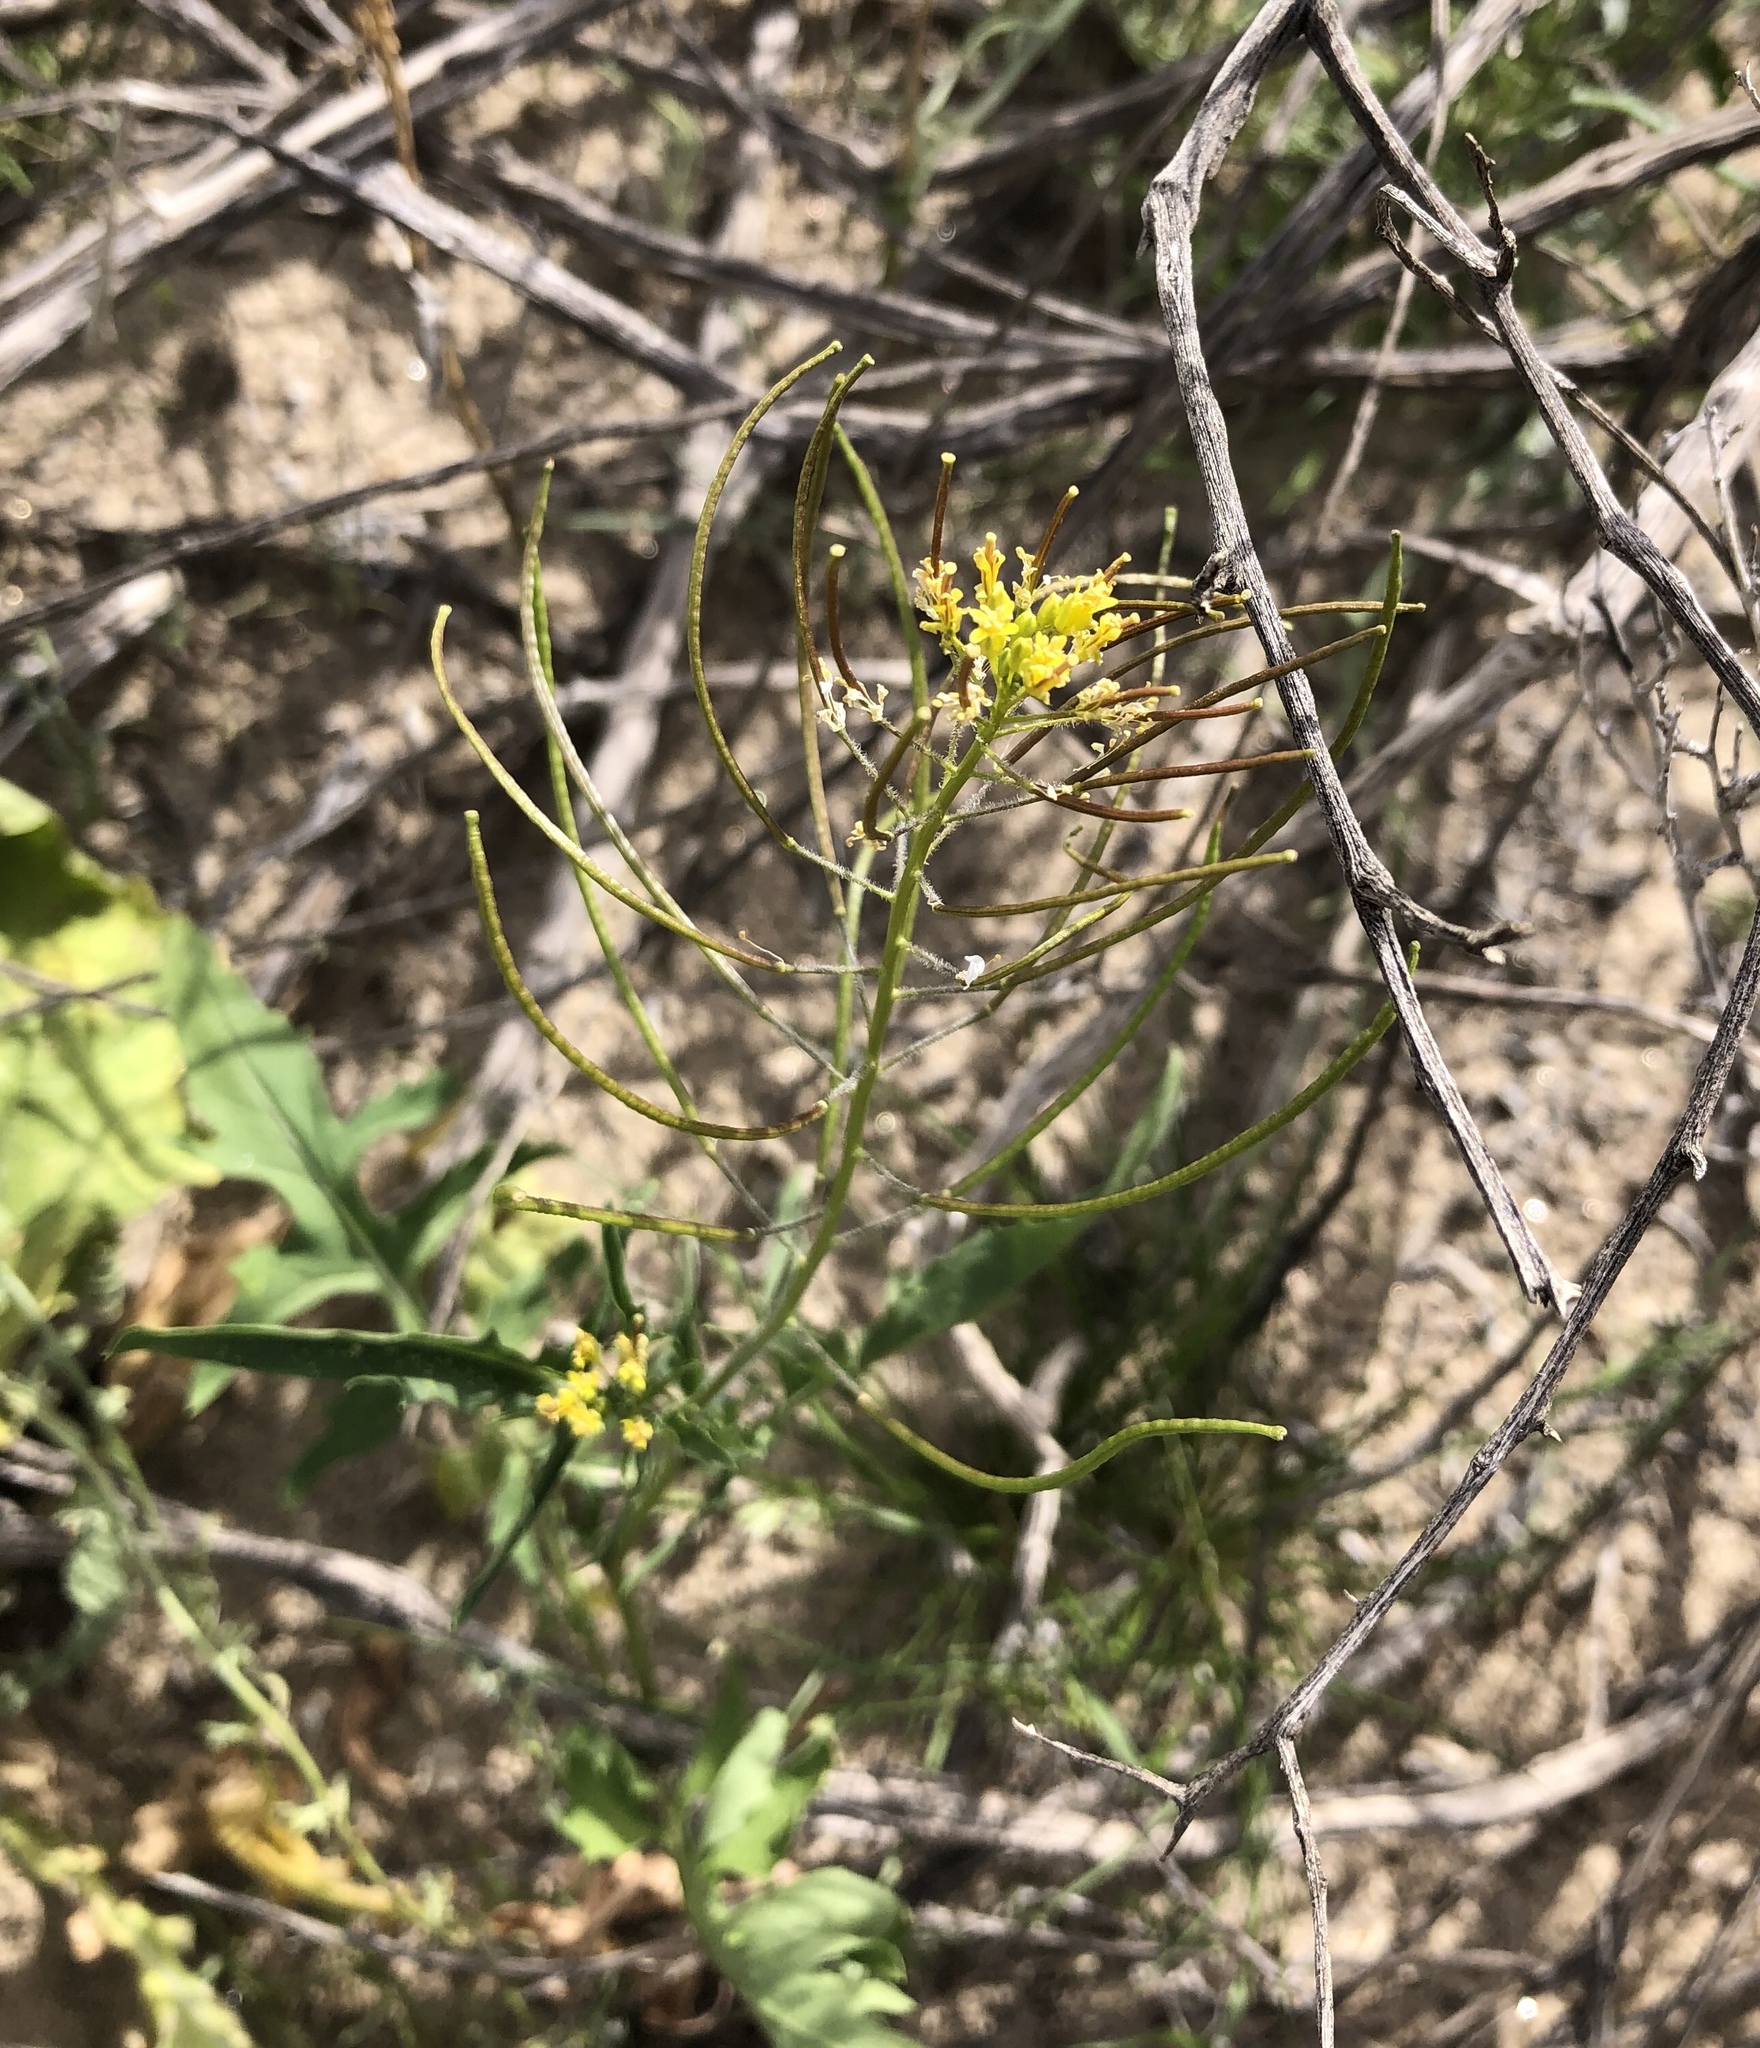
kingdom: Plantae
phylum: Tracheophyta
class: Magnoliopsida
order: Brassicales
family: Brassicaceae
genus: Sisymbrium
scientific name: Sisymbrium irio
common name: London rocket
